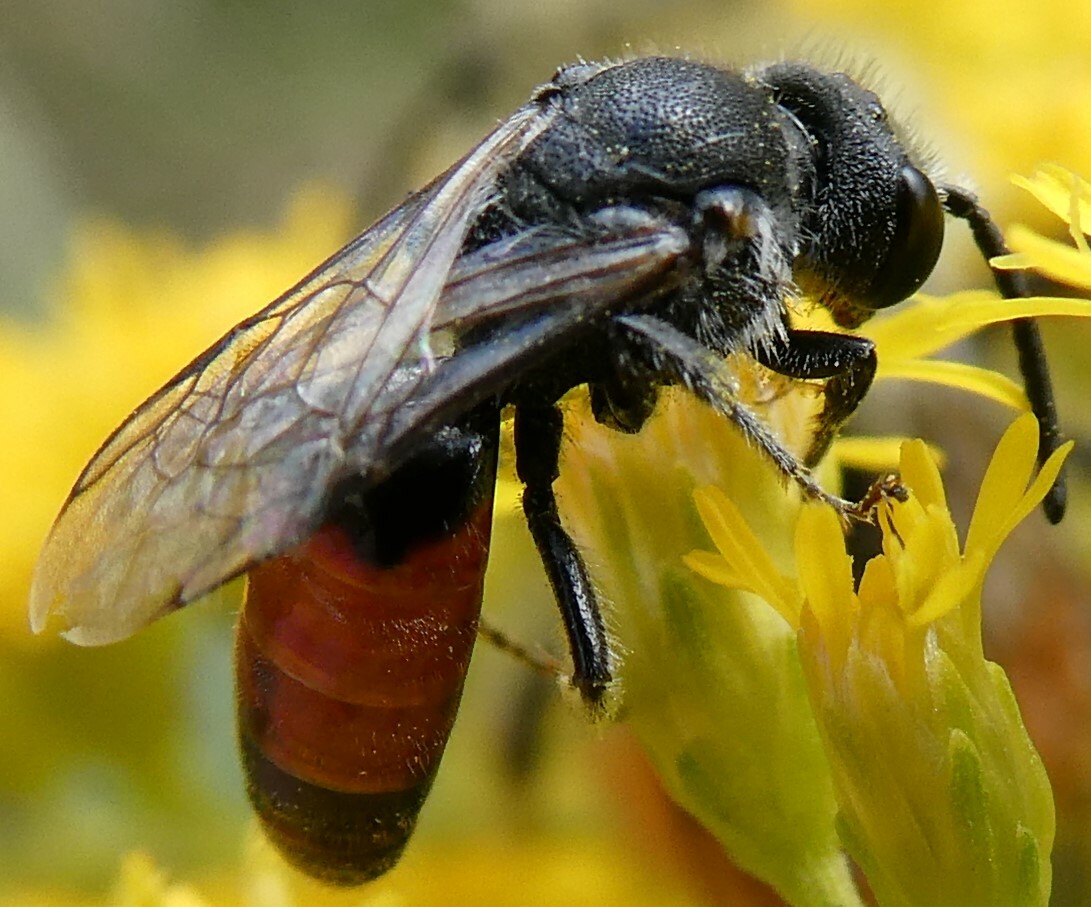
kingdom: Animalia
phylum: Arthropoda
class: Insecta
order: Hymenoptera
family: Halictidae
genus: Sphecodes
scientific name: Sphecodes davisii
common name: Davis's cuckoo sweat bee
